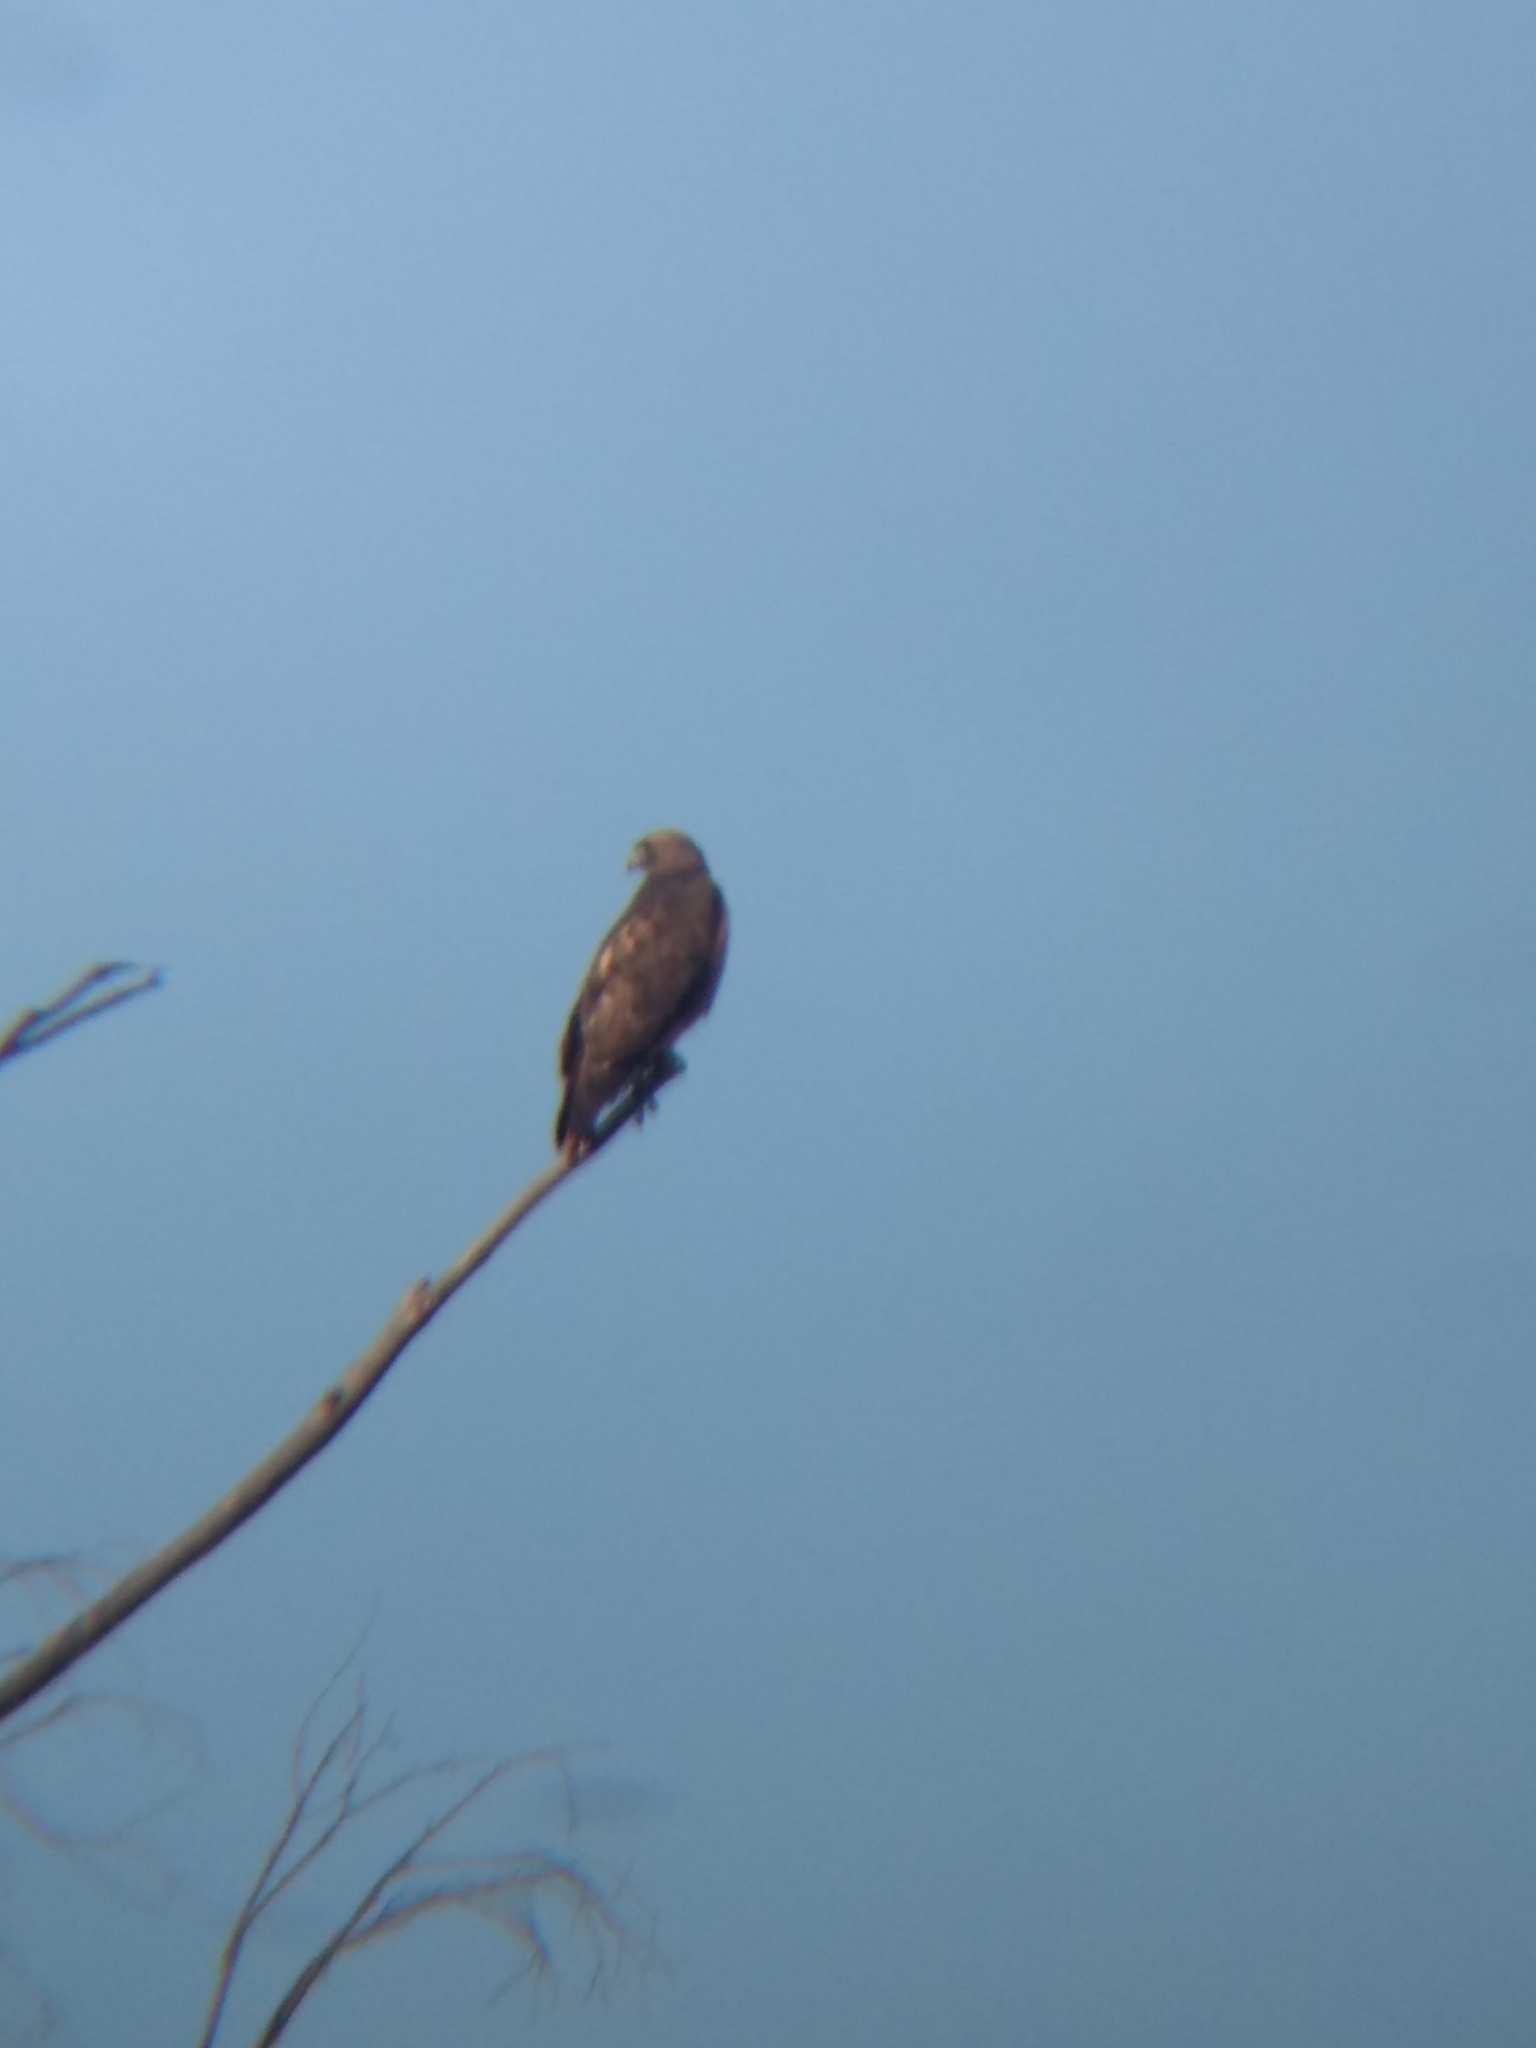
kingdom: Animalia
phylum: Chordata
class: Aves
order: Accipitriformes
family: Accipitridae
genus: Buteo
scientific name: Buteo jamaicensis
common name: Red-tailed hawk
